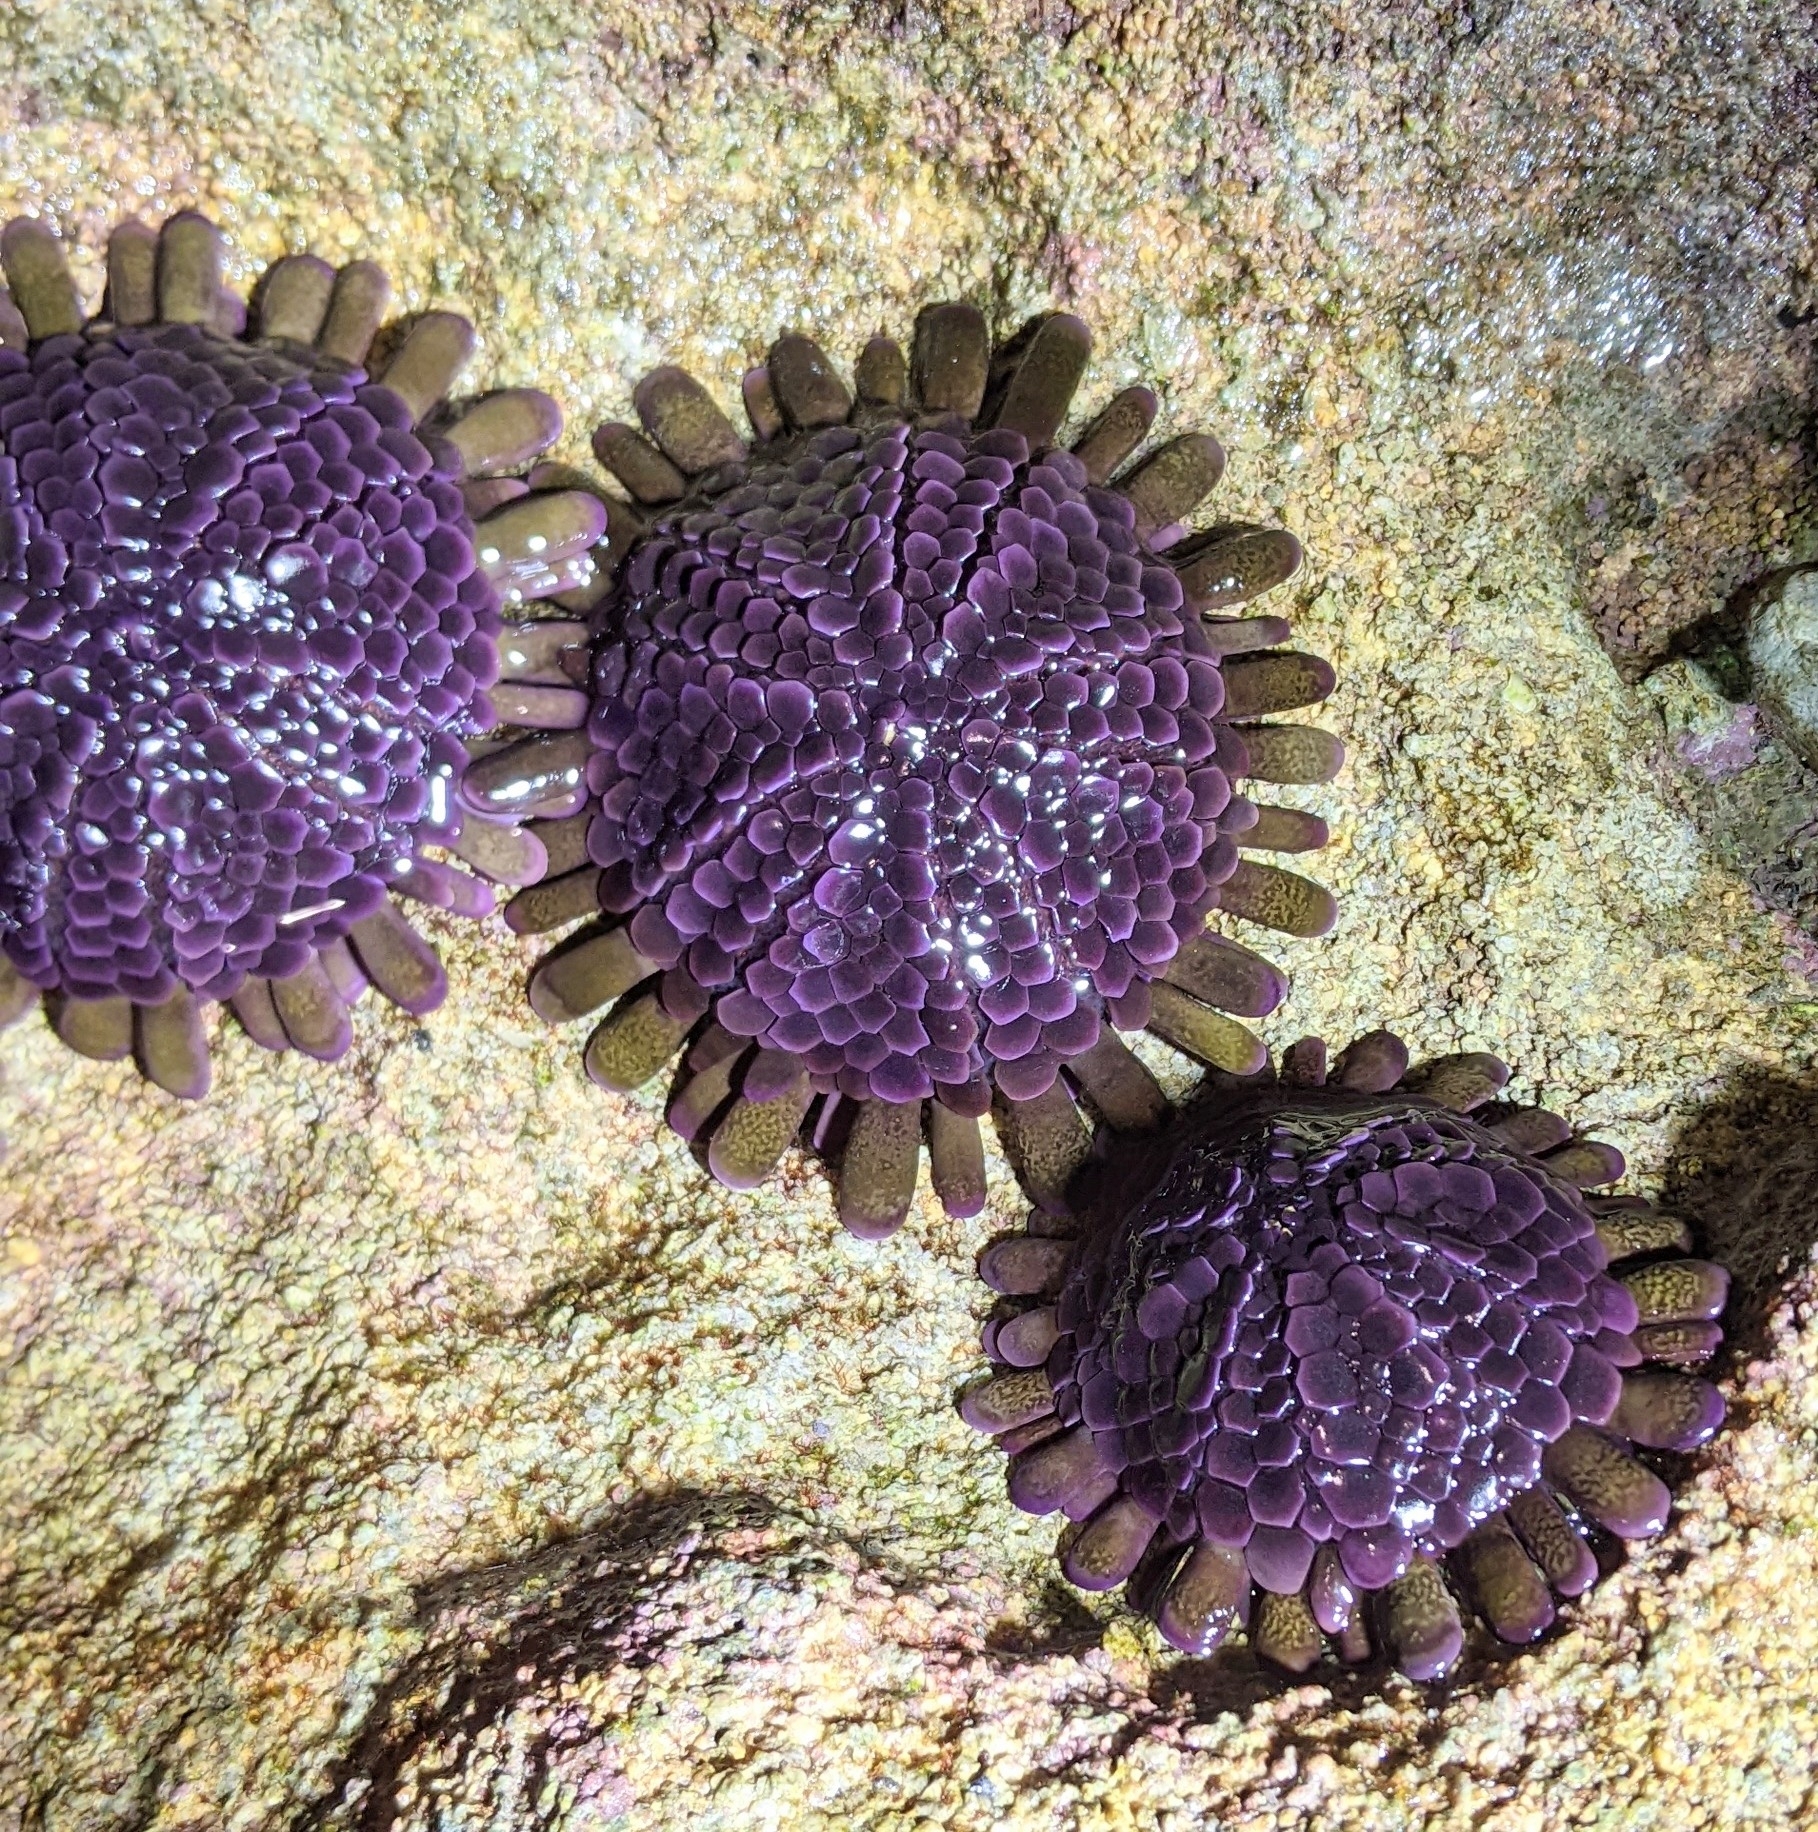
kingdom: Animalia
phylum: Echinodermata
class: Echinoidea
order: Camarodonta
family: Echinometridae
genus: Colobocentrotus
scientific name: Colobocentrotus atratus
